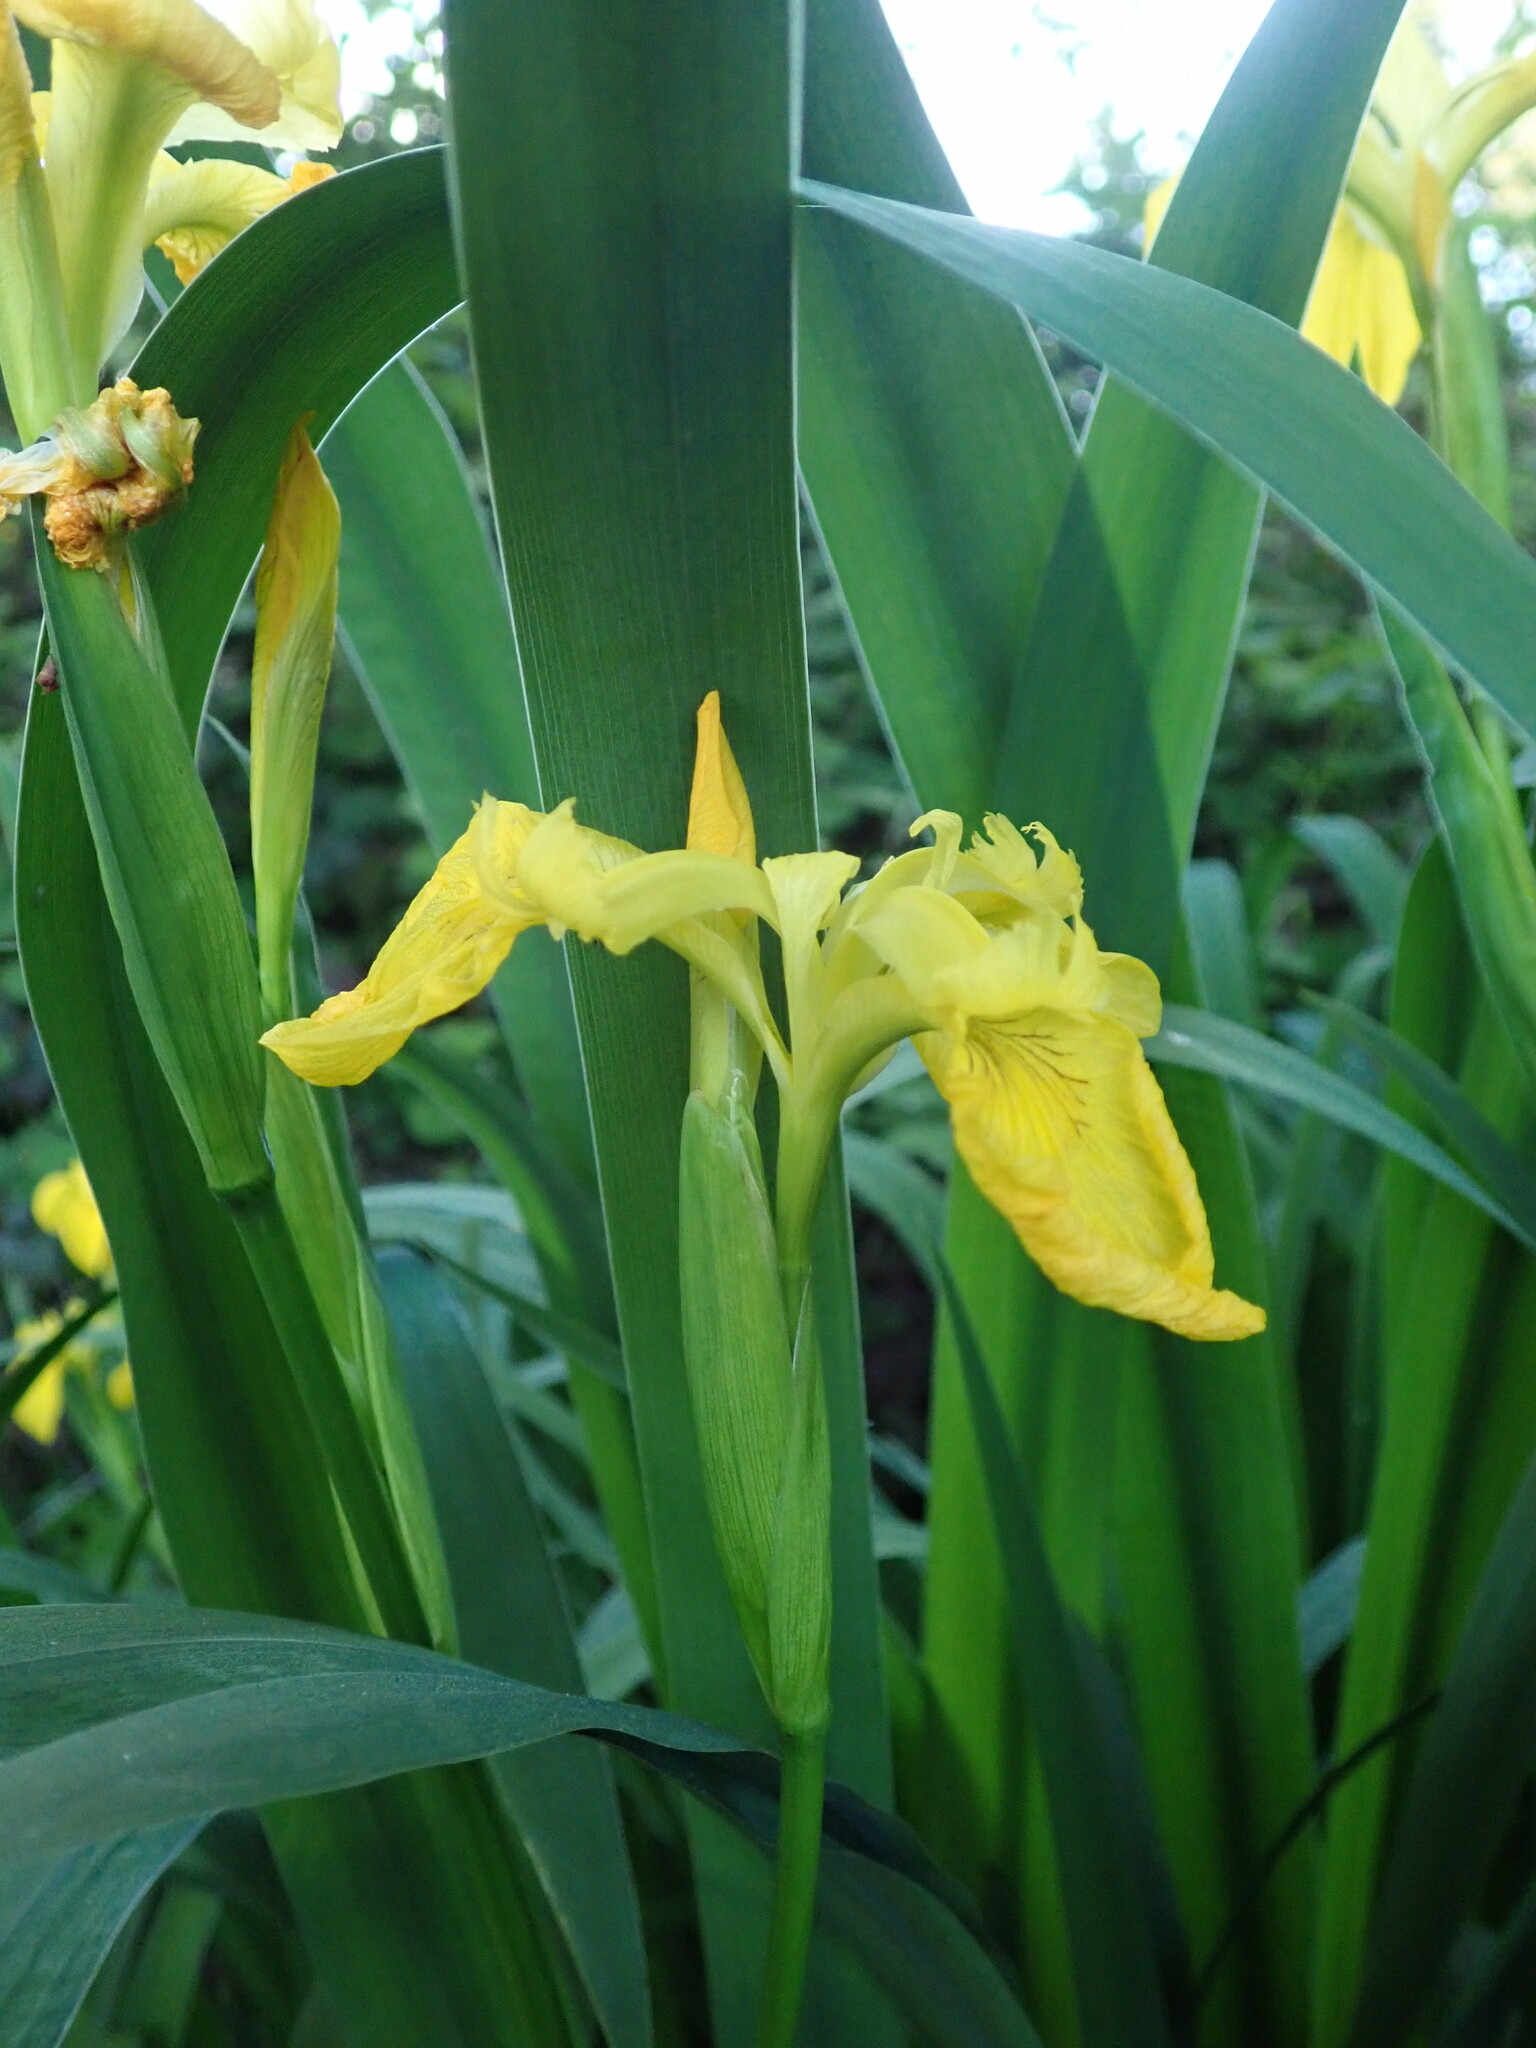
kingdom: Plantae
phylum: Tracheophyta
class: Liliopsida
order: Asparagales
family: Iridaceae
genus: Iris
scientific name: Iris pseudacorus
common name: Yellow flag
